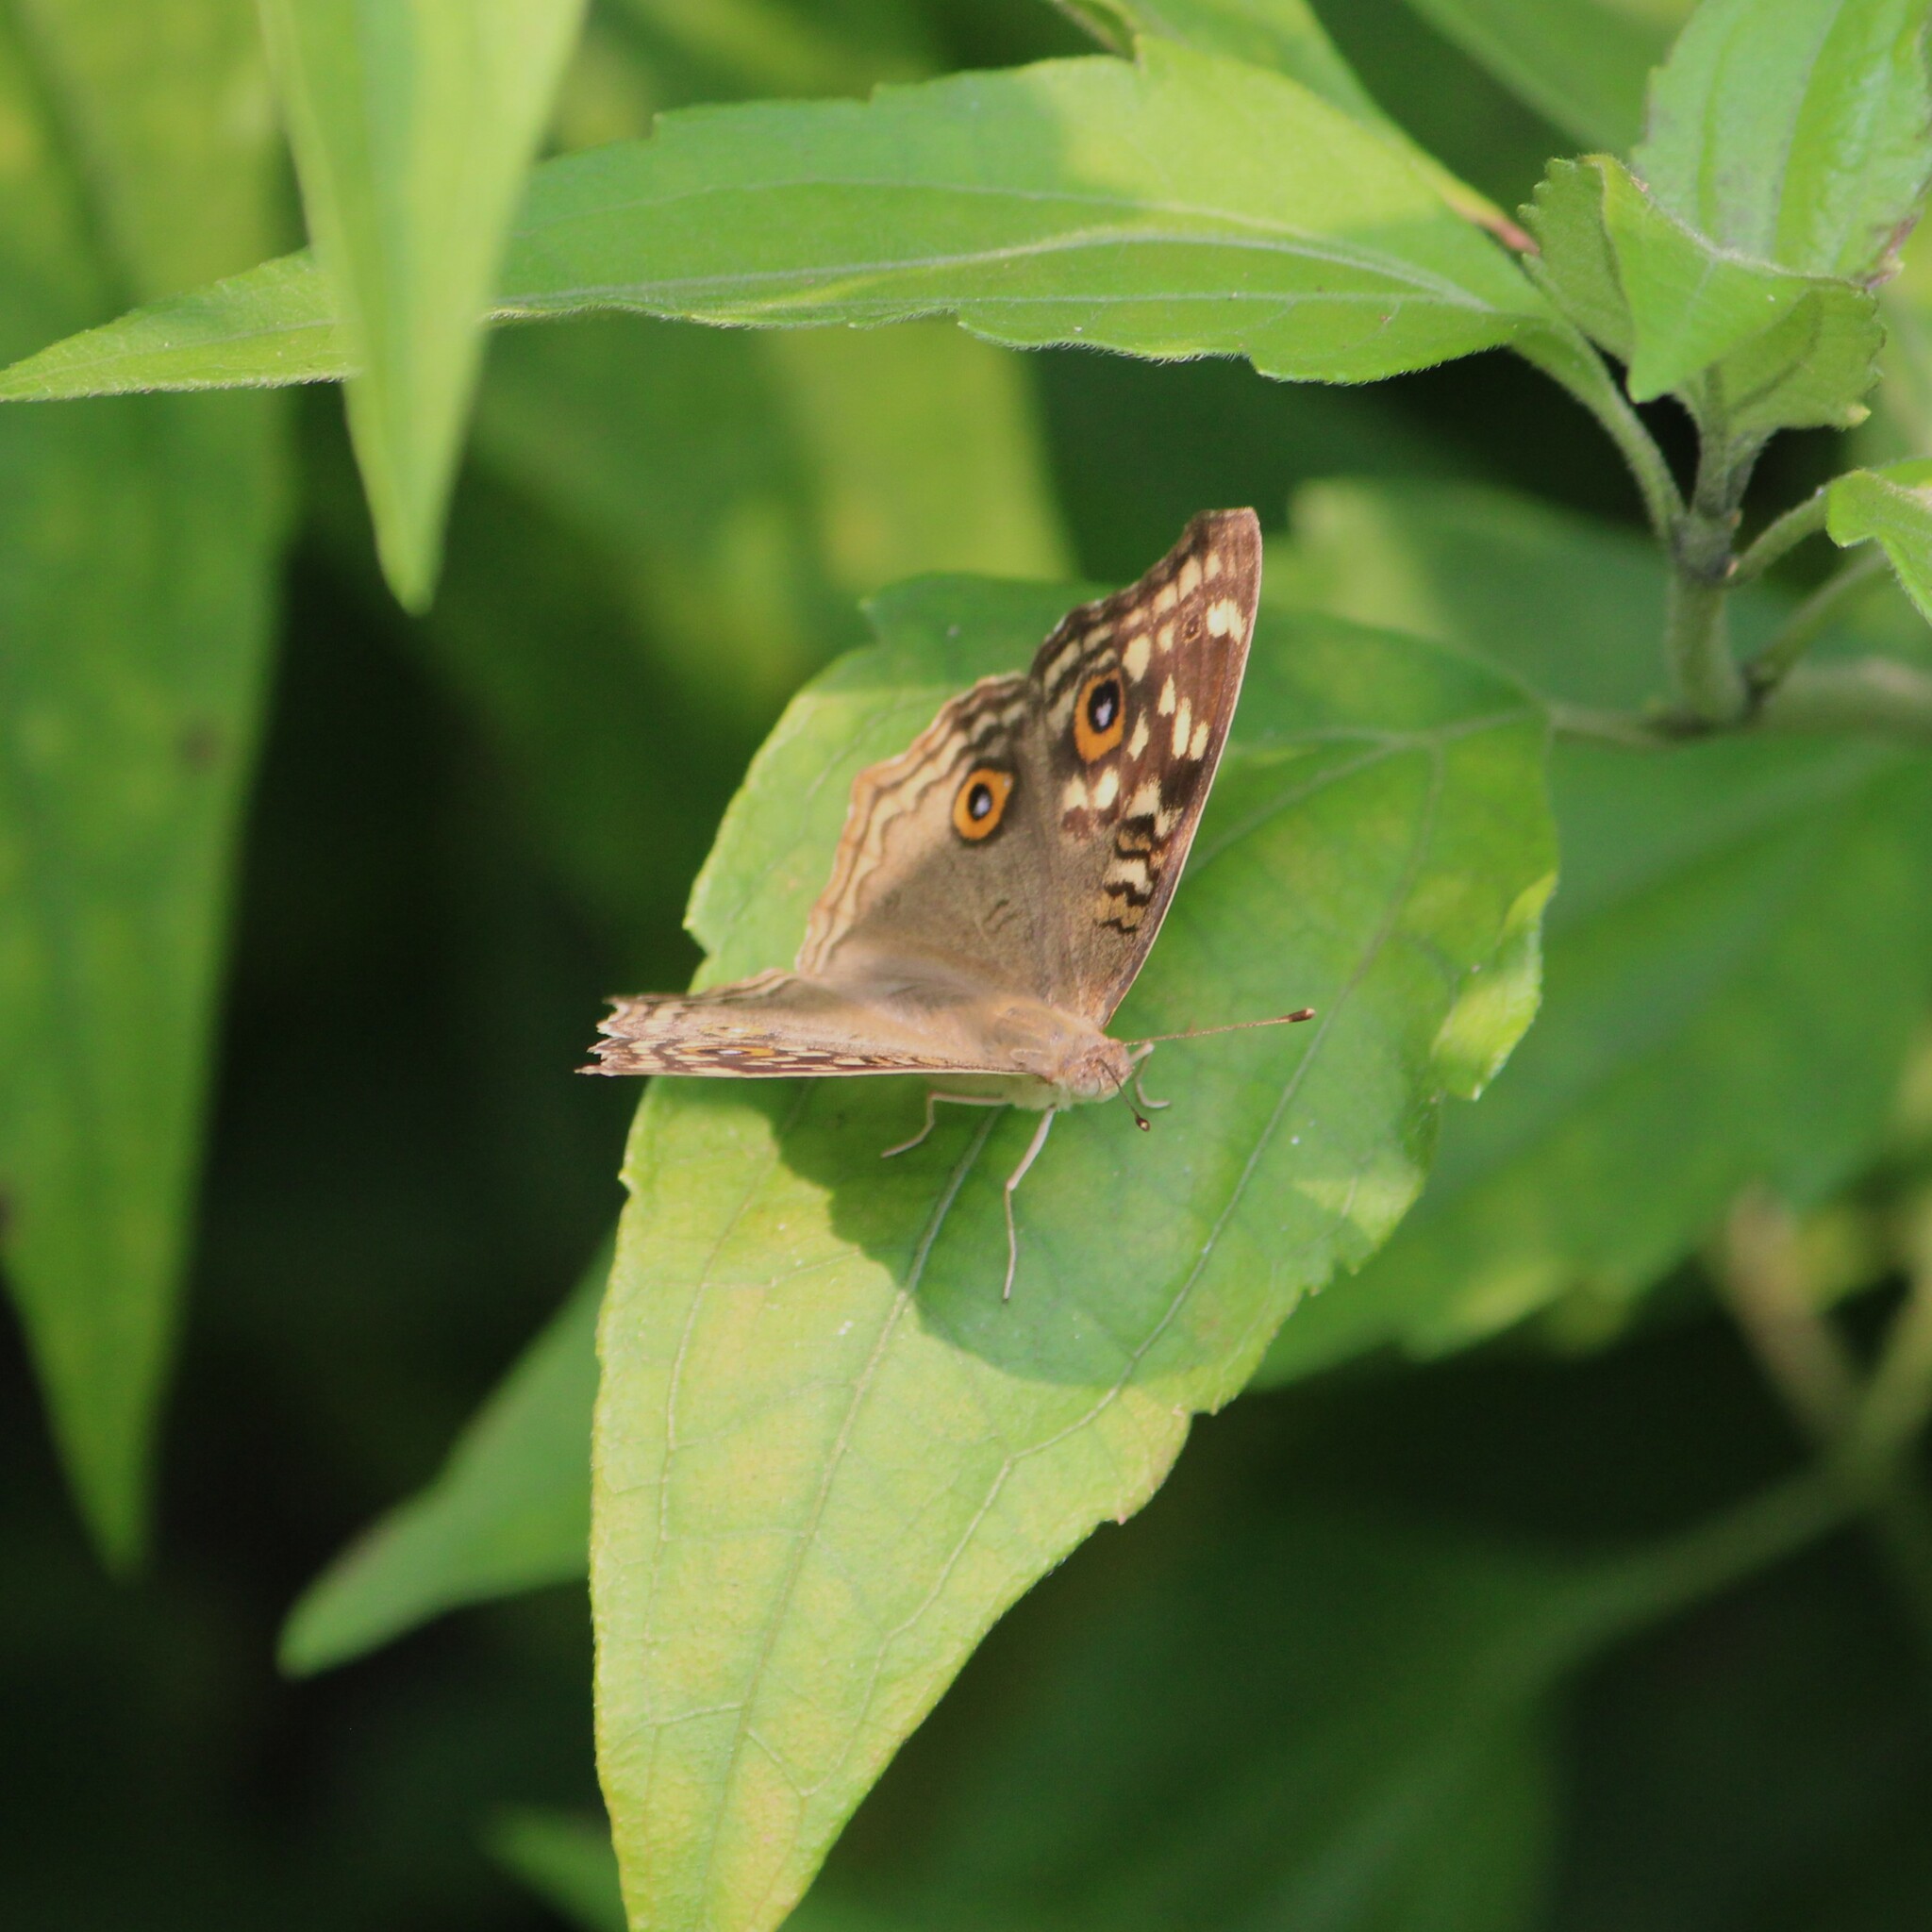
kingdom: Animalia
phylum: Arthropoda
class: Insecta
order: Lepidoptera
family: Nymphalidae
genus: Junonia
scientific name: Junonia lemonias
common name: Lemon pansy
